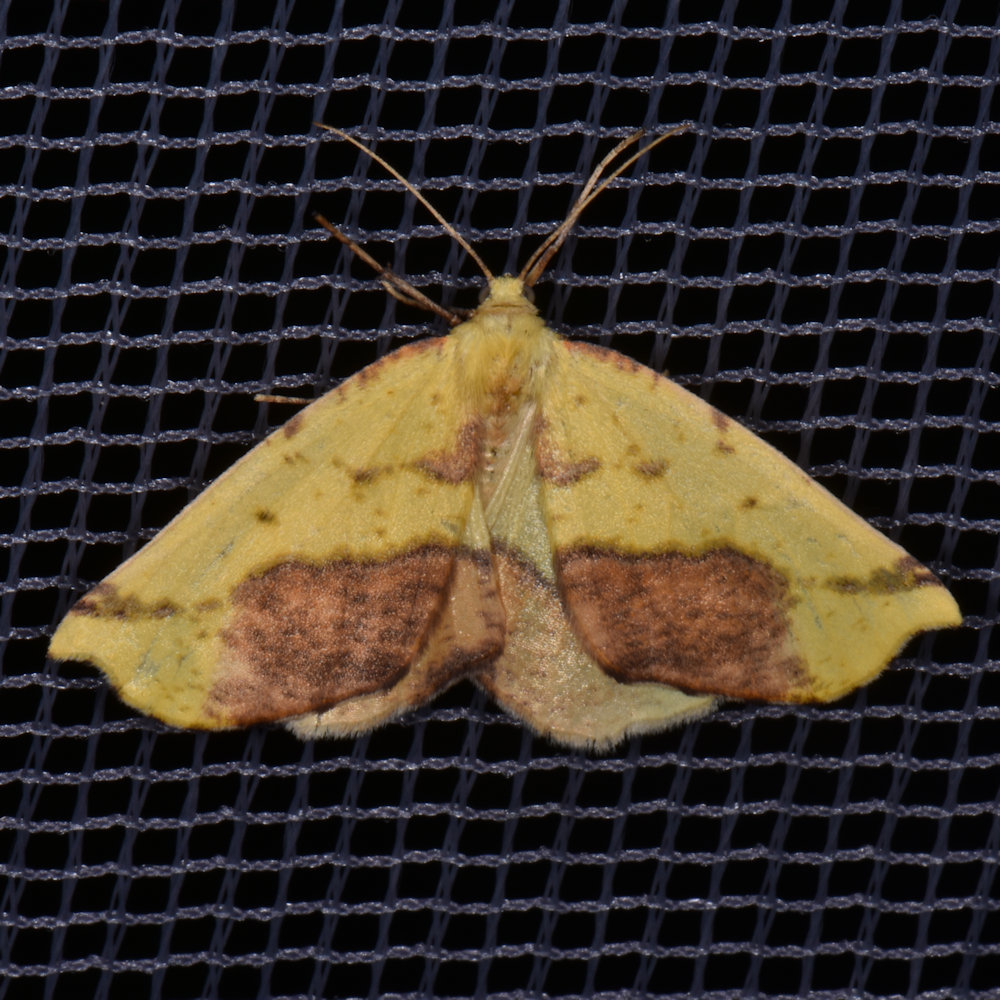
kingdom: Animalia
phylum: Arthropoda
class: Insecta
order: Lepidoptera
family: Geometridae
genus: Sicya
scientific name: Sicya macularia
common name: Sharp-lined yellow
